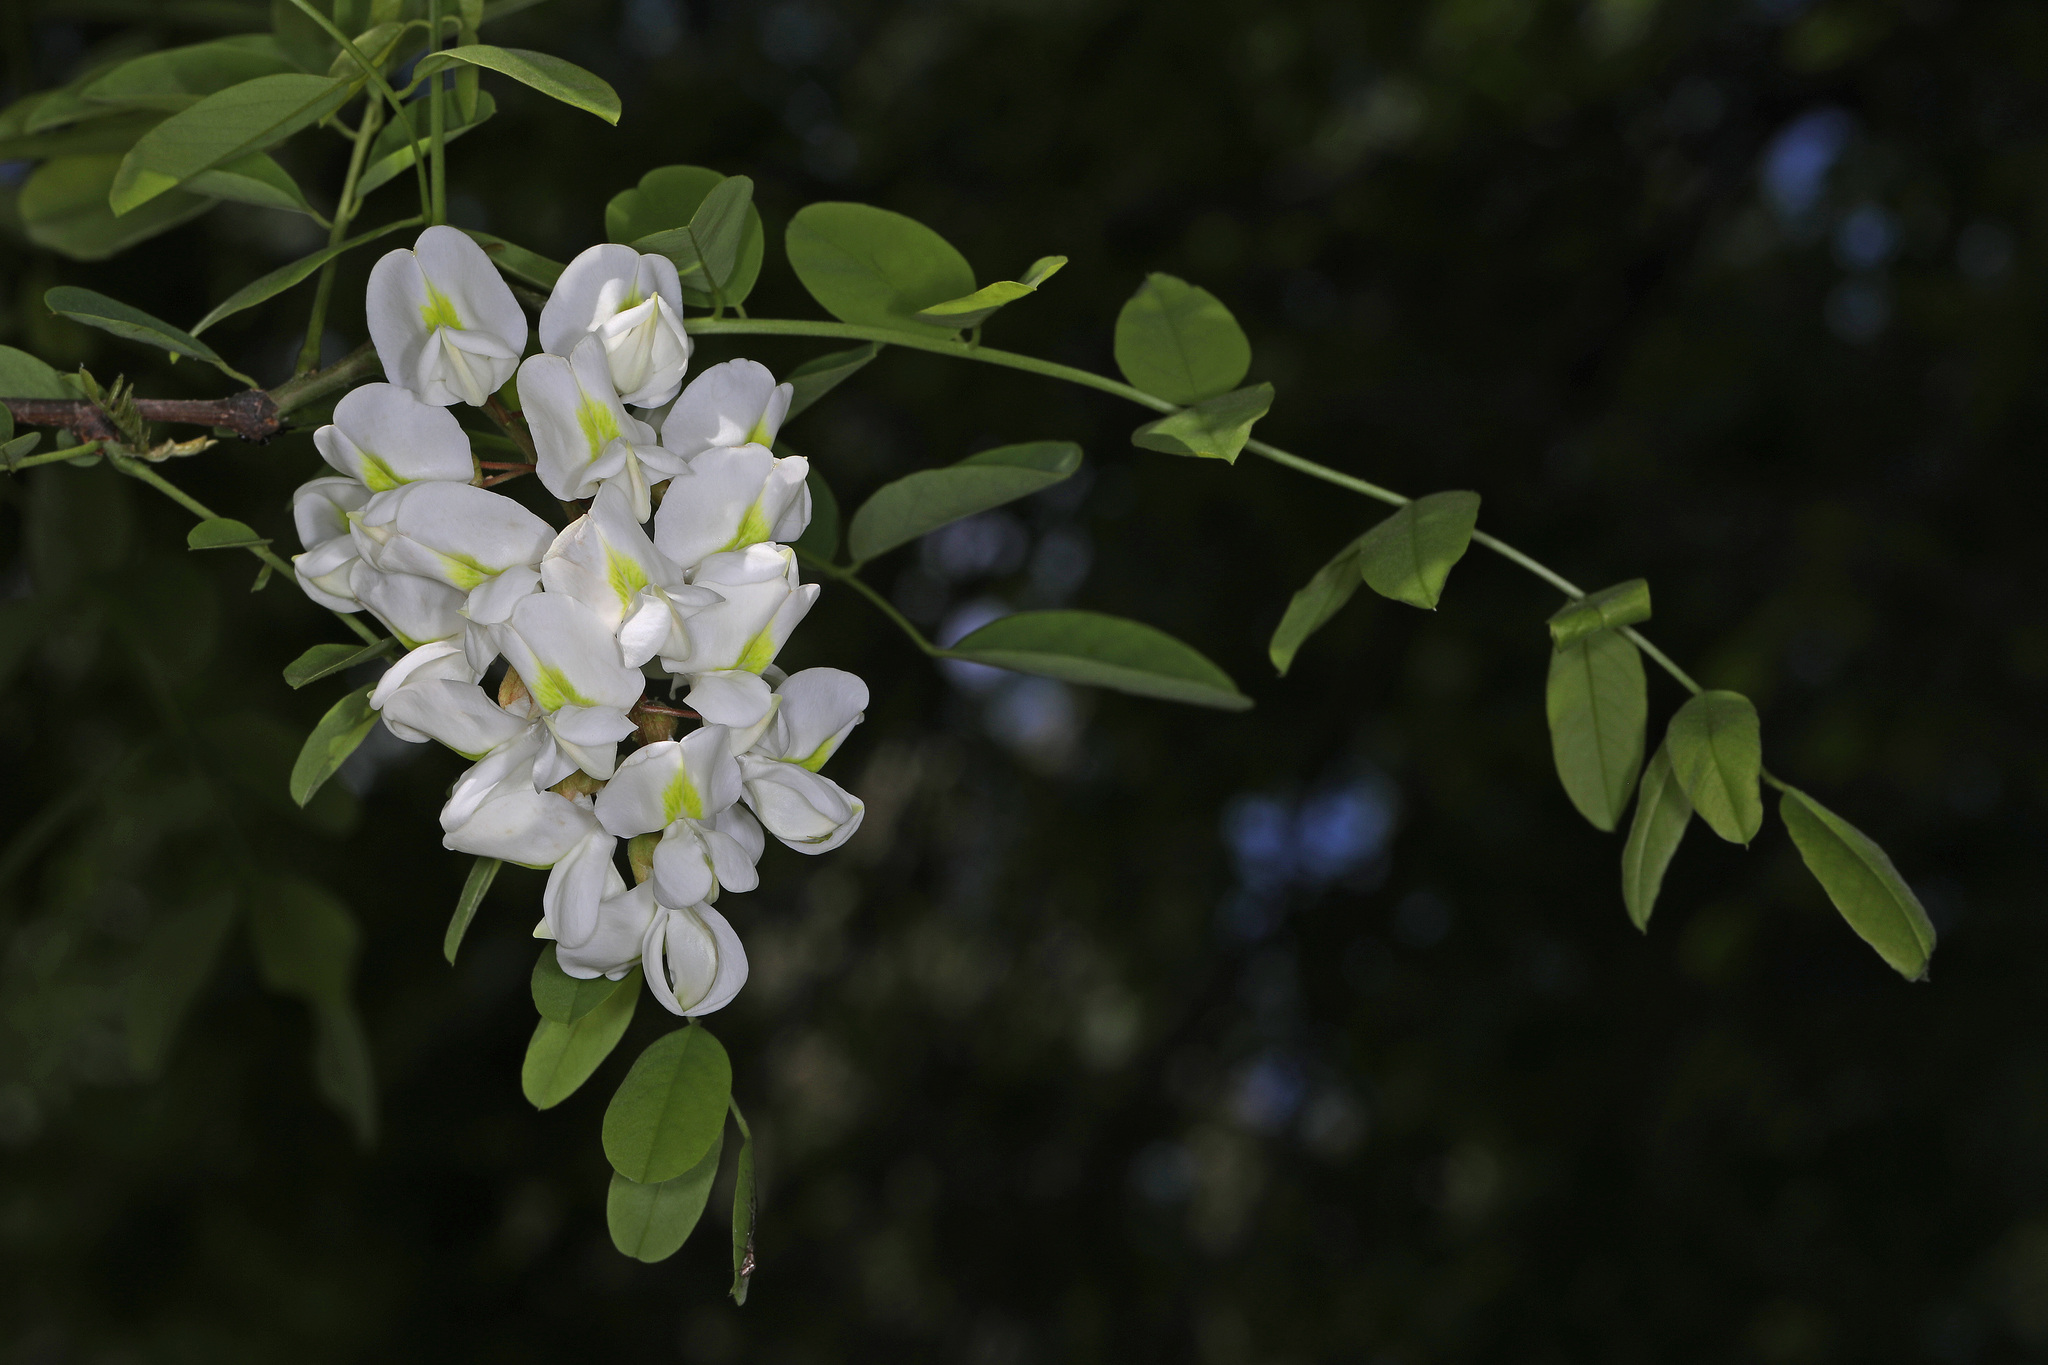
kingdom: Plantae
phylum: Tracheophyta
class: Magnoliopsida
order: Fabales
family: Fabaceae
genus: Robinia
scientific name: Robinia pseudoacacia
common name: Black locust
